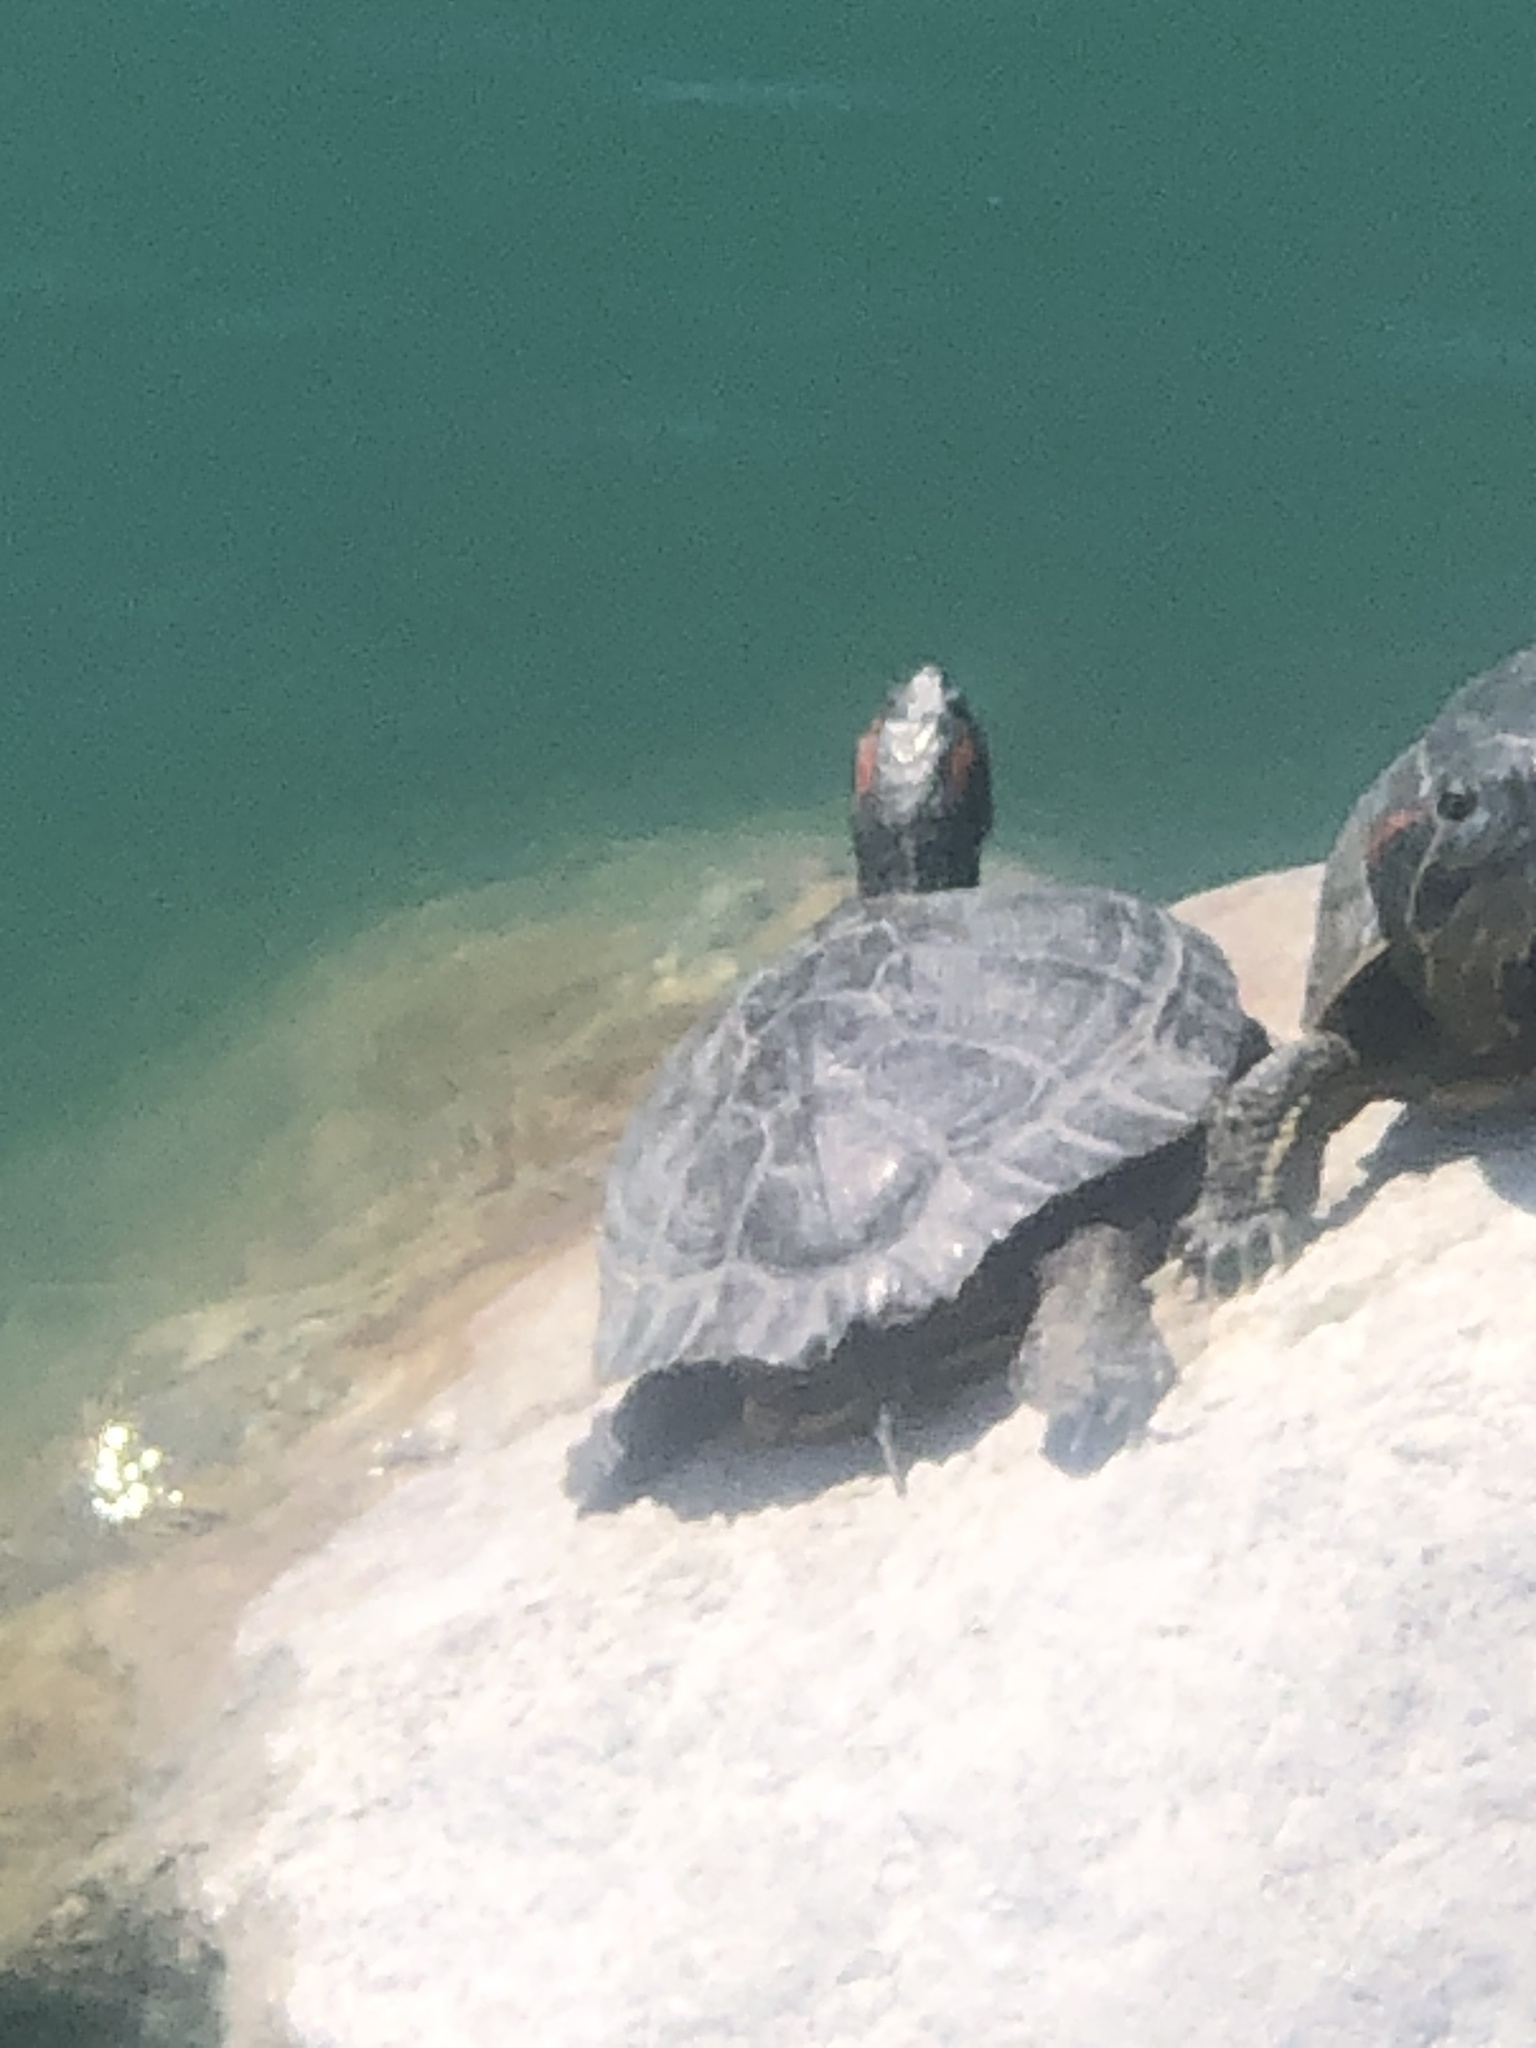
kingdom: Animalia
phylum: Chordata
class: Testudines
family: Emydidae
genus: Trachemys
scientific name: Trachemys scripta
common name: Slider
